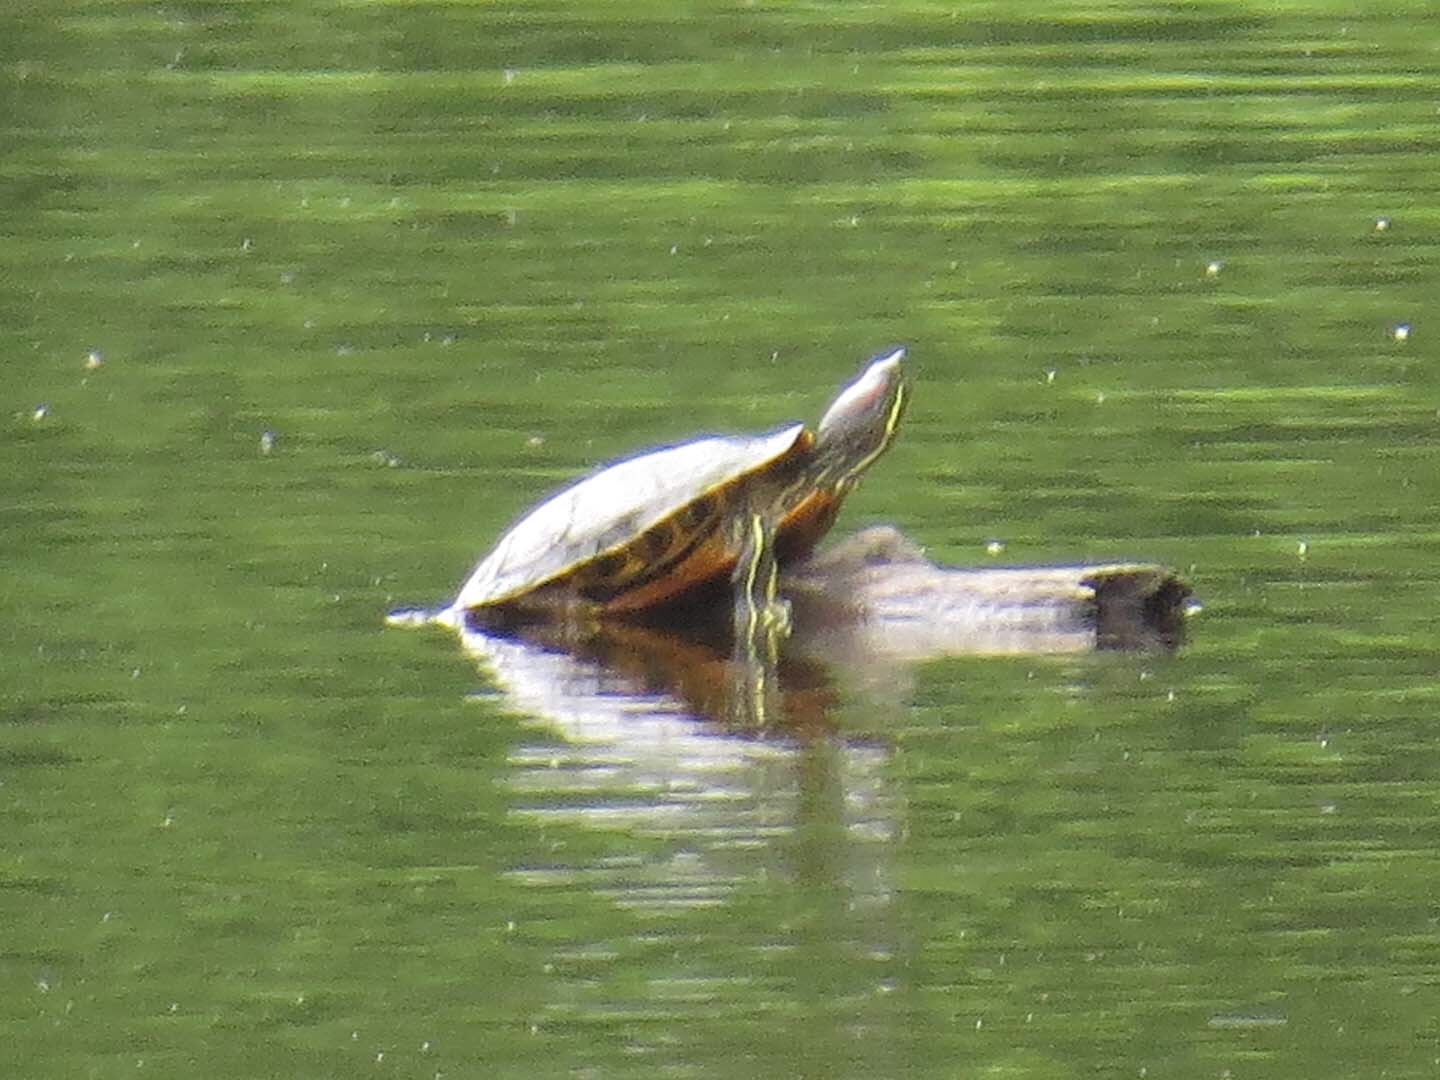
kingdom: Animalia
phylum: Chordata
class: Testudines
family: Emydidae
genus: Trachemys
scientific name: Trachemys scripta
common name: Slider
